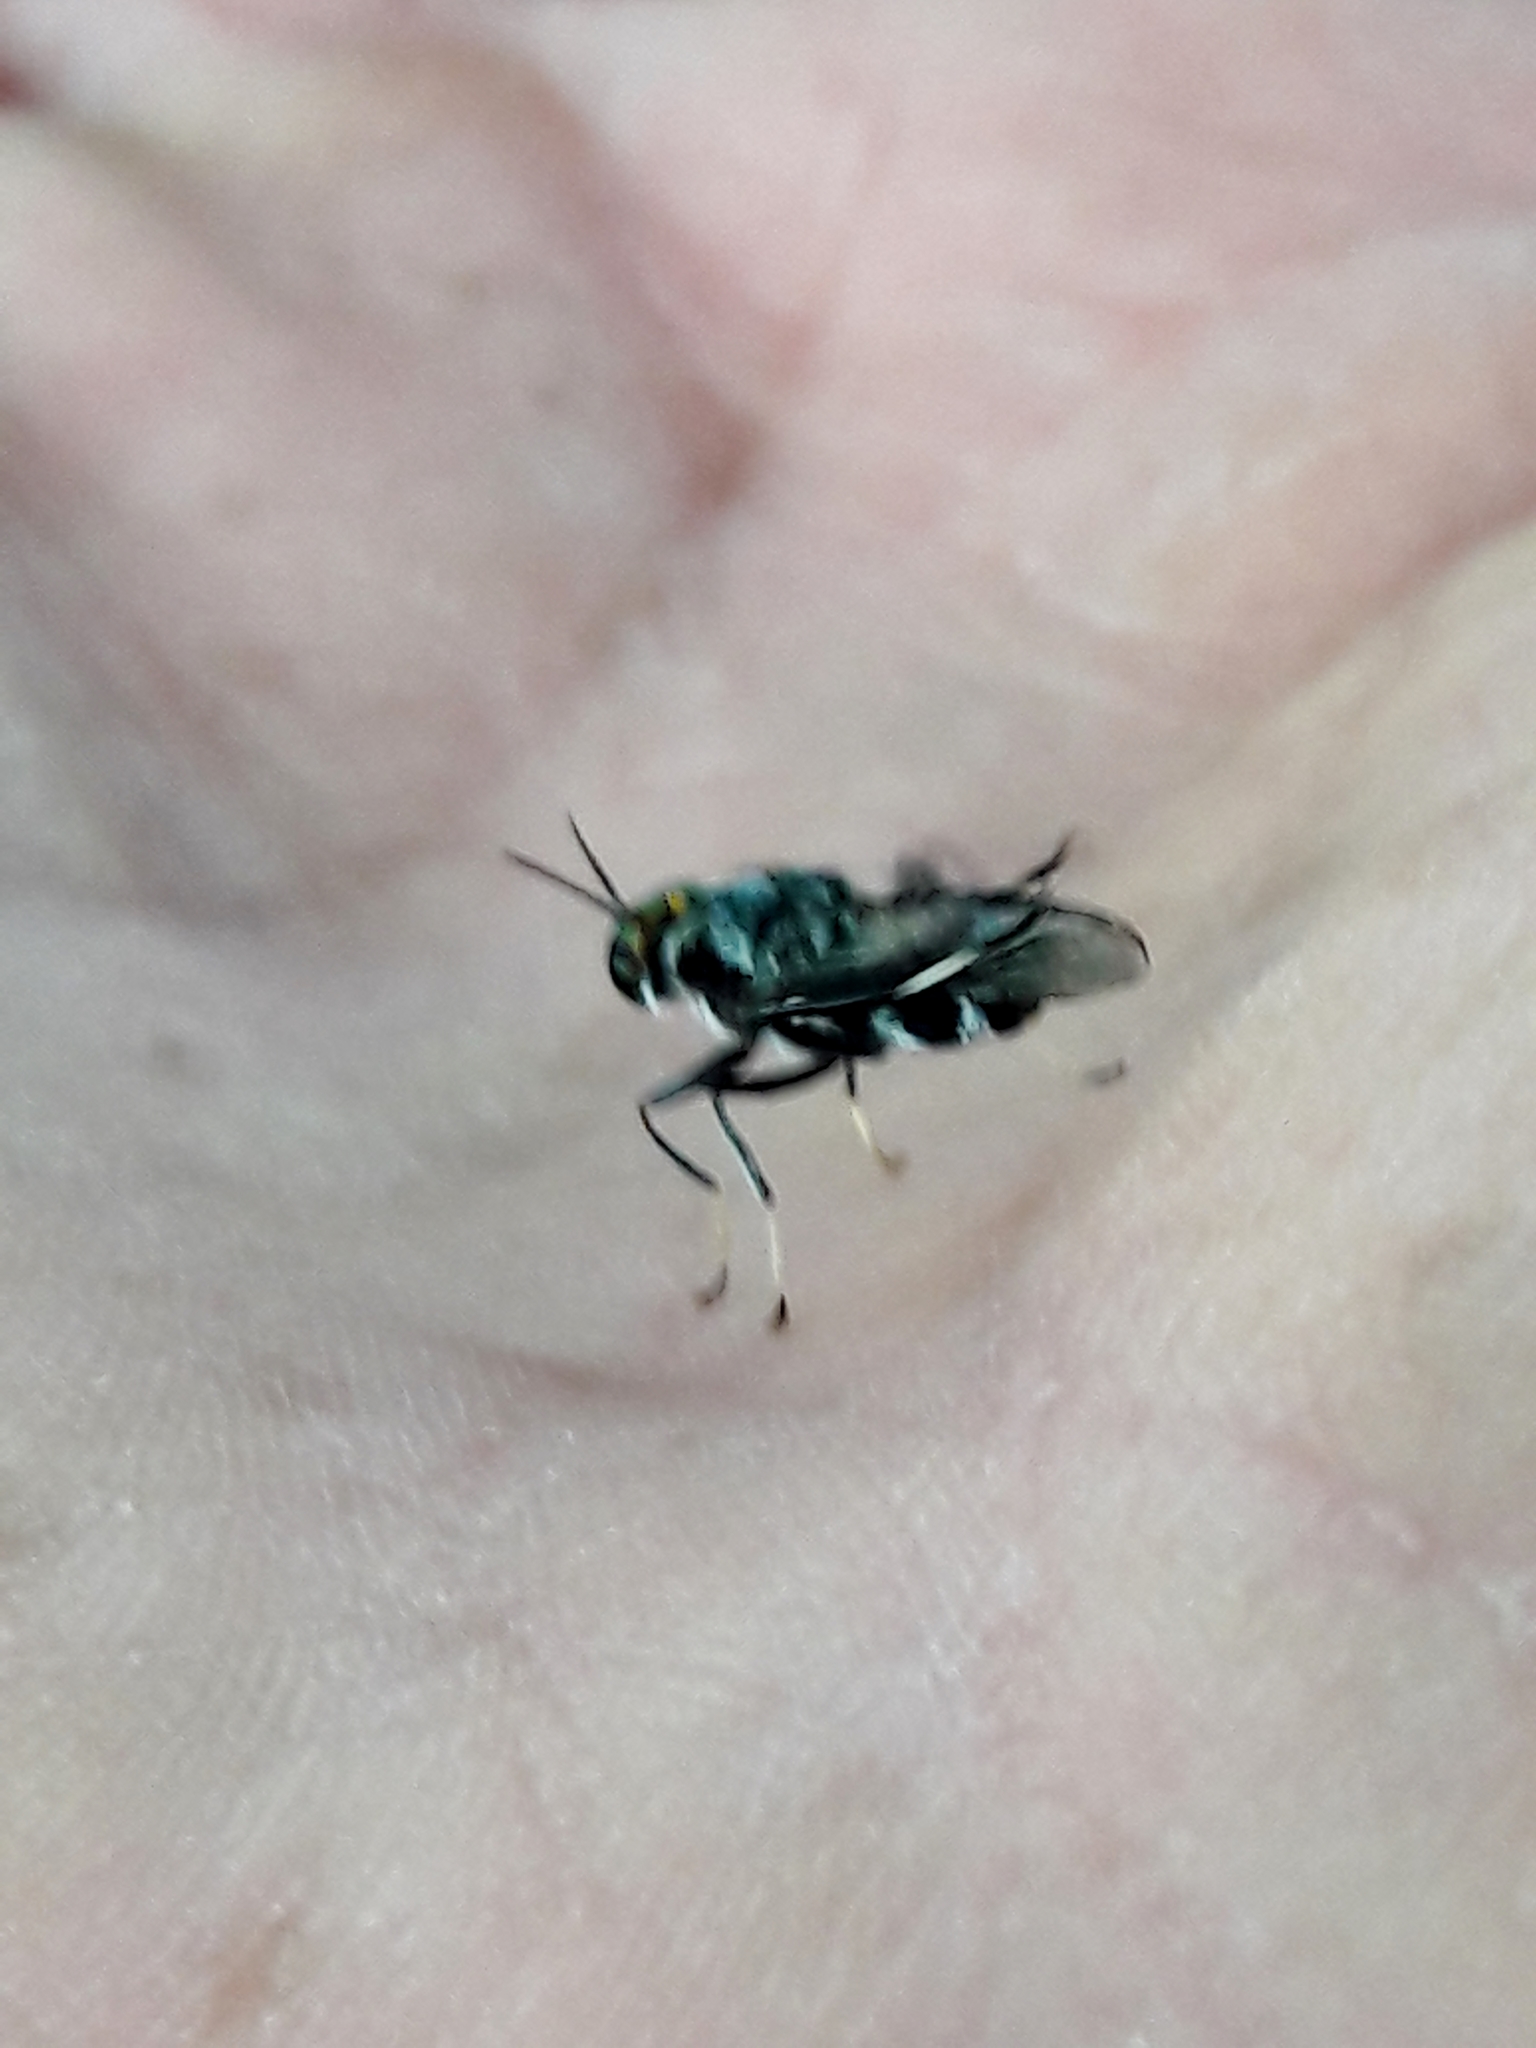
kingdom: Animalia
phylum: Arthropoda
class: Insecta
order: Diptera
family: Stratiomyidae
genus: Cyphomyia
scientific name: Cyphomyia wiedemanni
